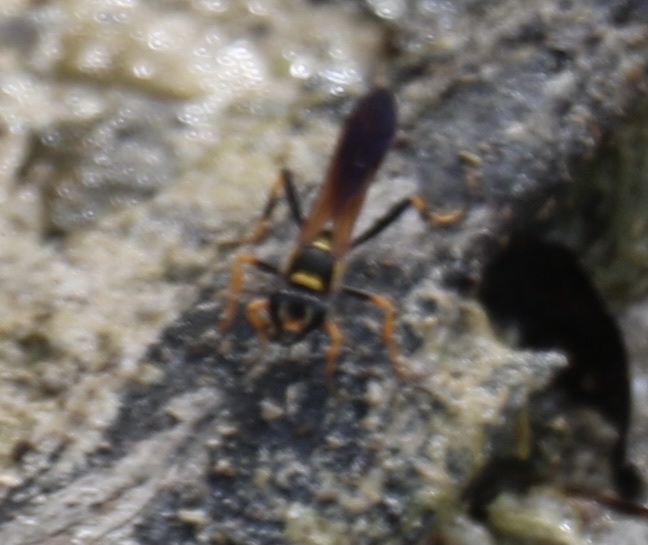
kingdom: Animalia
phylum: Arthropoda
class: Insecta
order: Hymenoptera
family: Sphecidae
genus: Sceliphron
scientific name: Sceliphron caementarium
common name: Mud dauber
